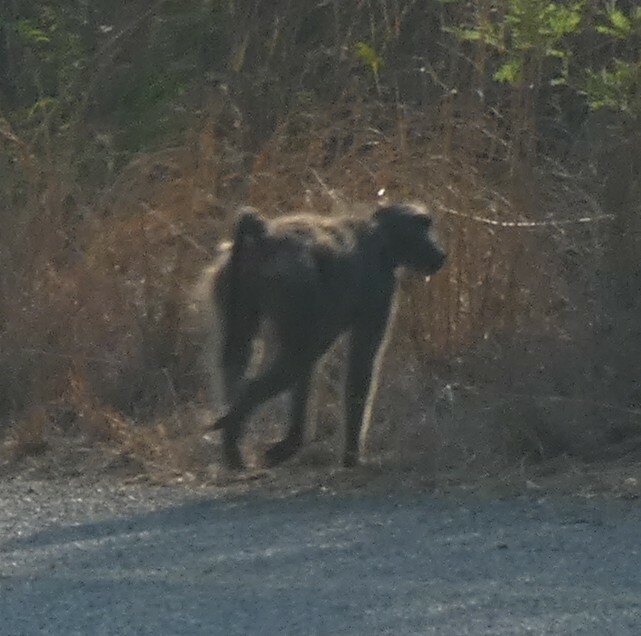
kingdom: Animalia
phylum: Chordata
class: Mammalia
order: Primates
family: Cercopithecidae
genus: Papio
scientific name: Papio ursinus
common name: Chacma baboon
